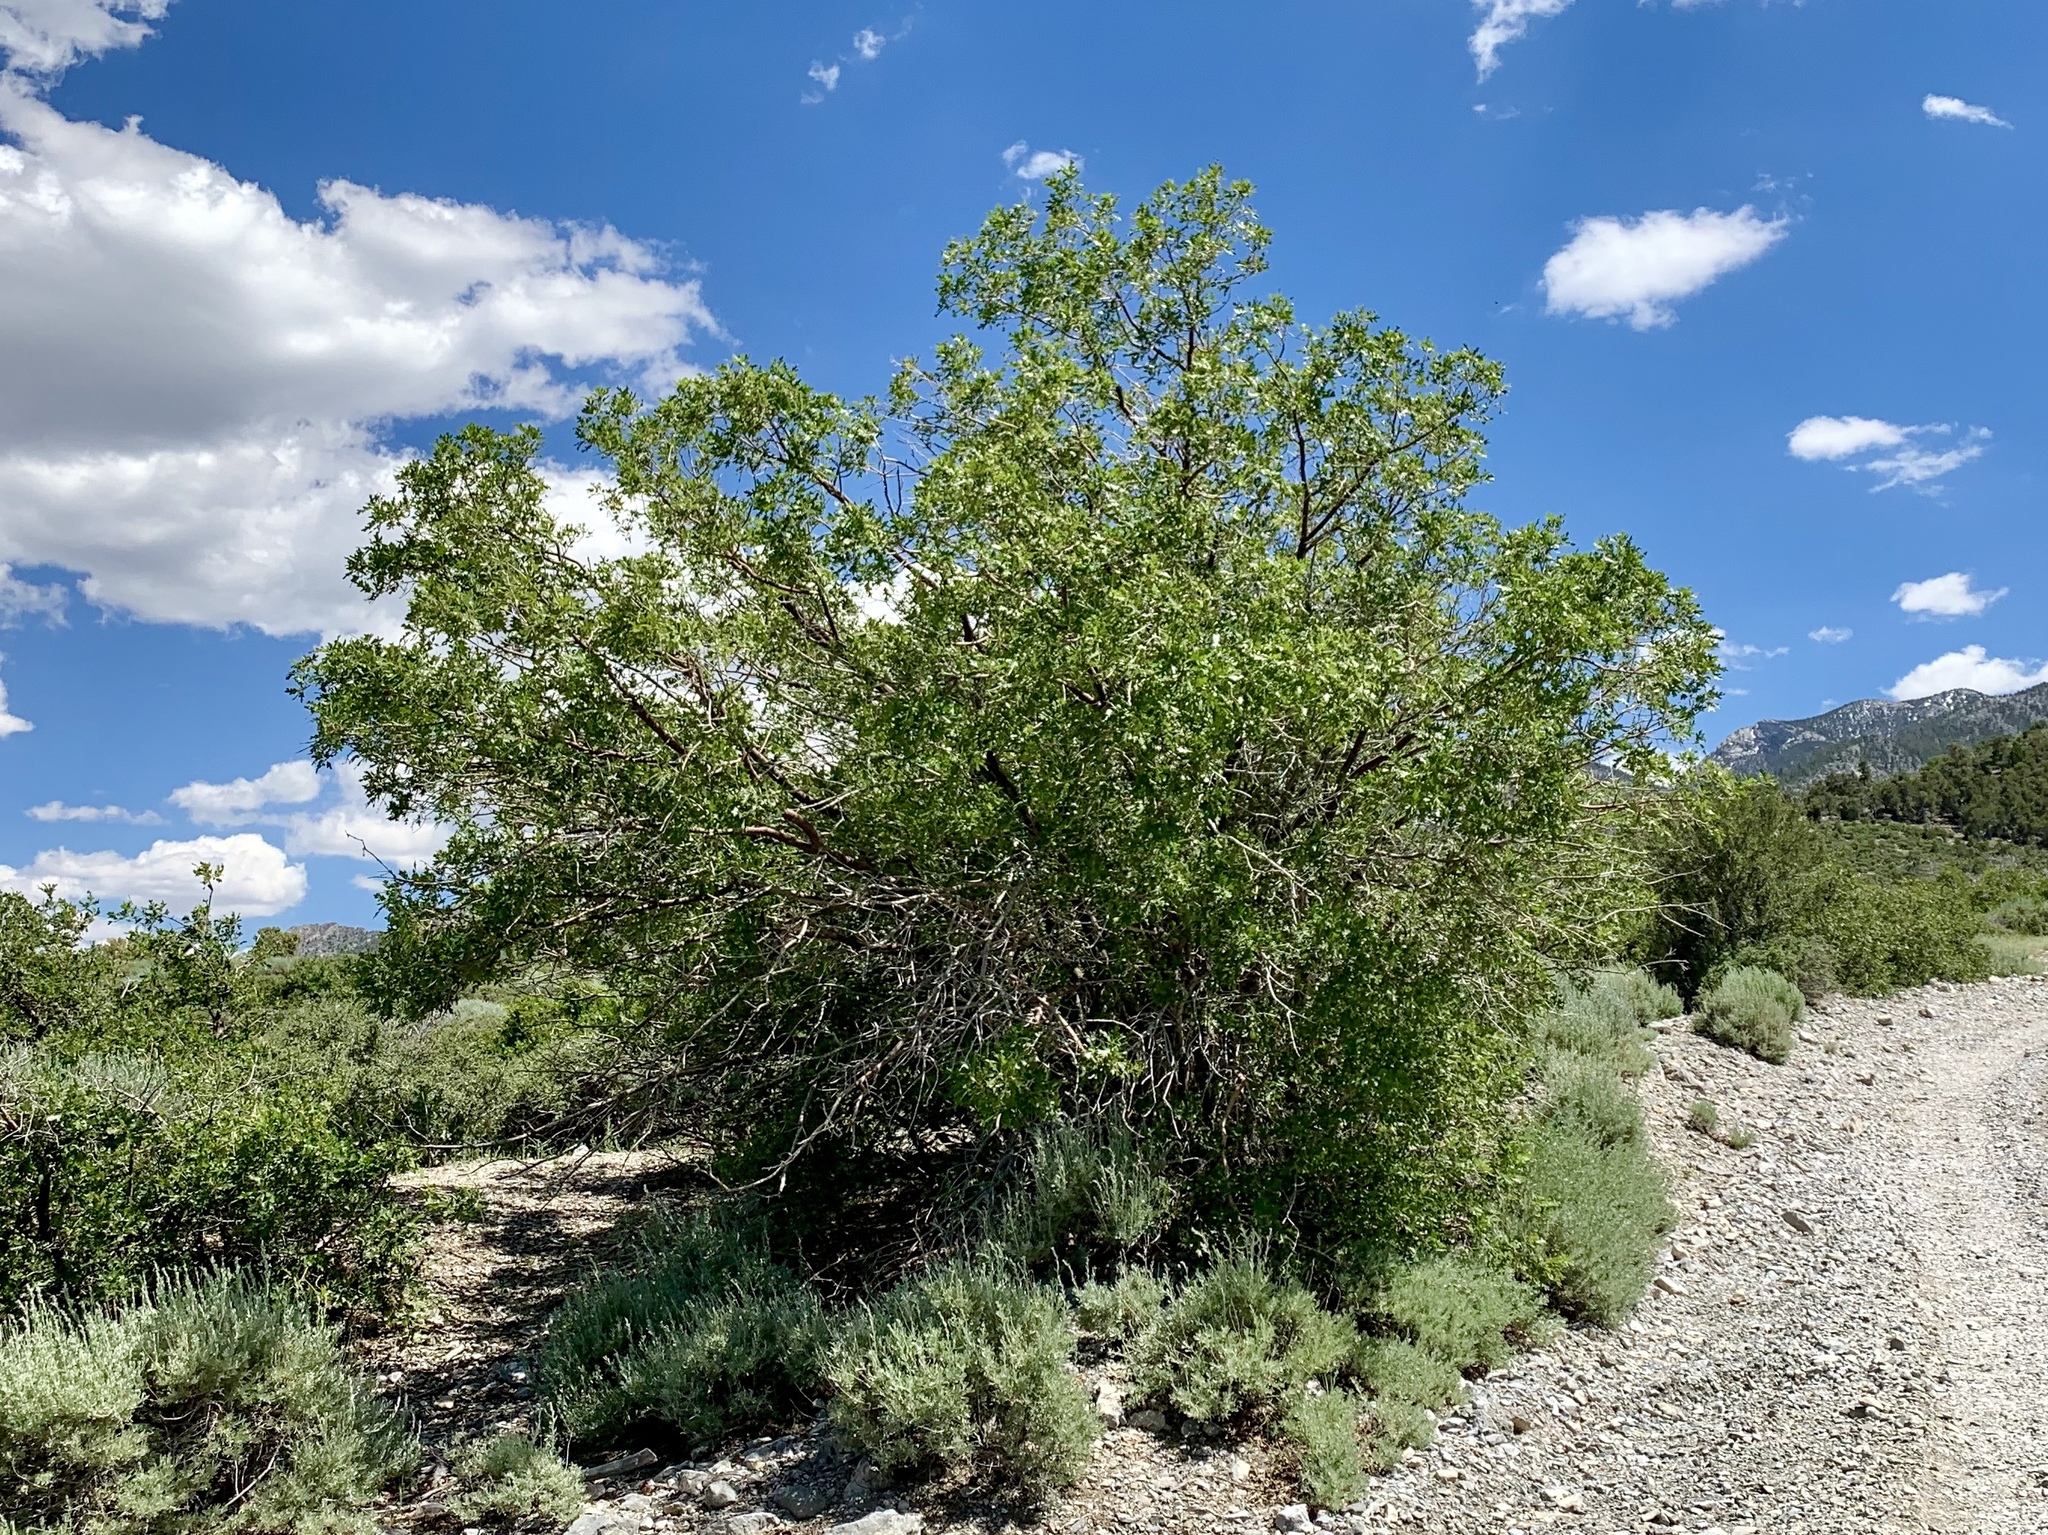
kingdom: Plantae
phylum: Tracheophyta
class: Magnoliopsida
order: Fagales
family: Fagaceae
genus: Quercus
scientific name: Quercus gambelii
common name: Gambel oak
